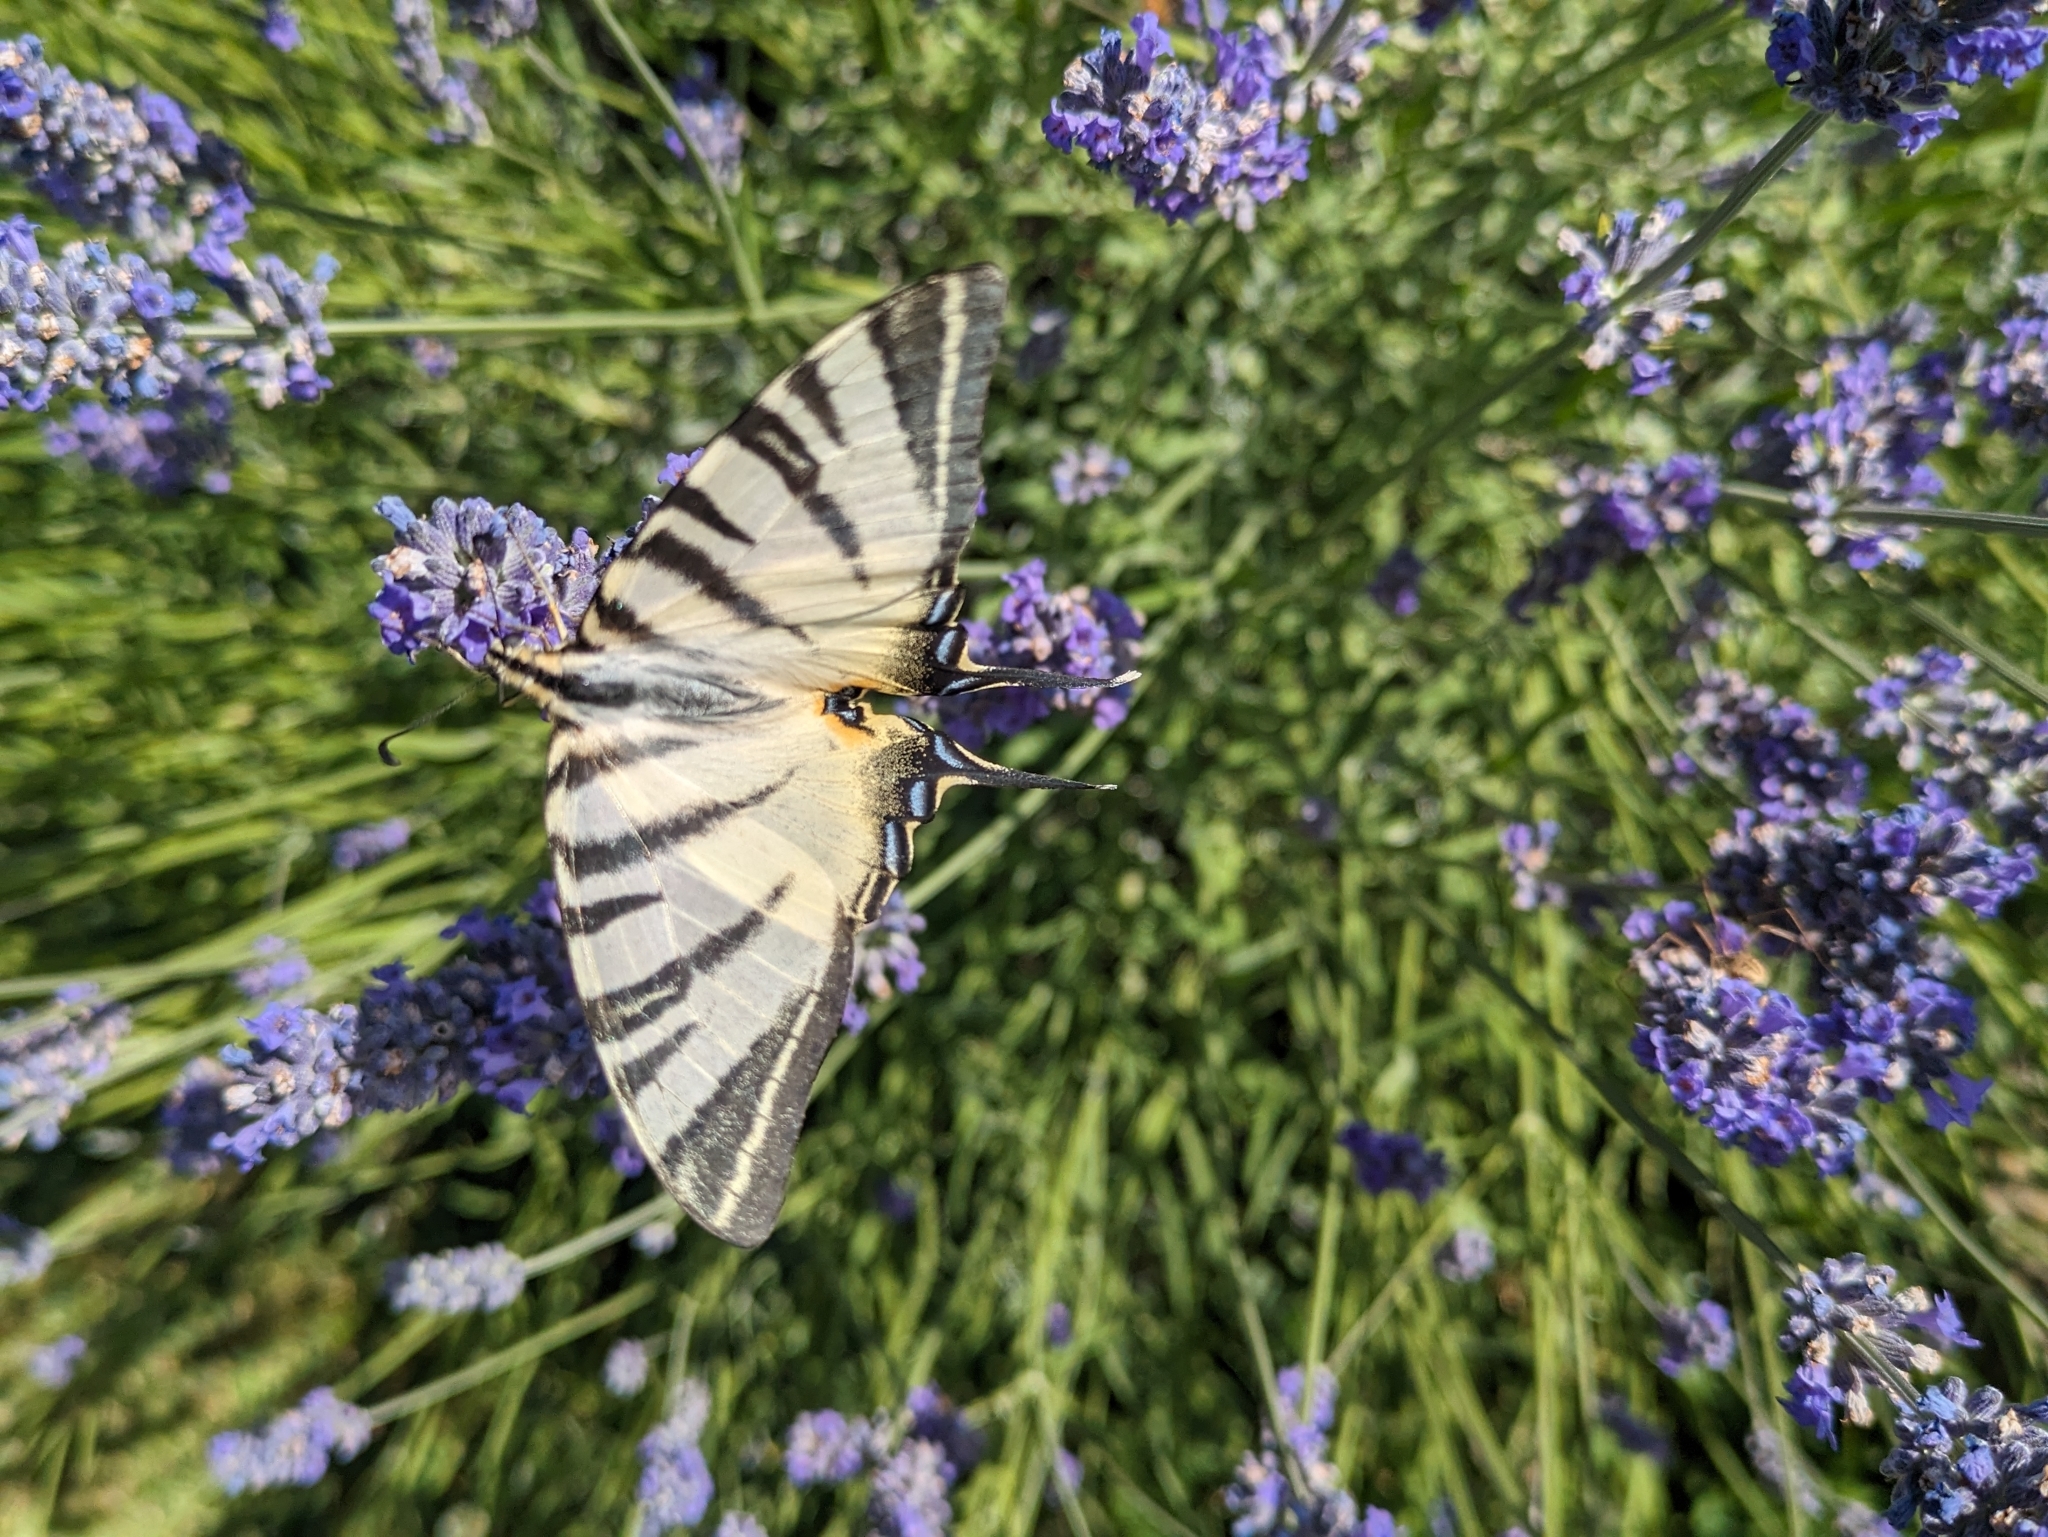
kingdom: Animalia
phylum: Arthropoda
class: Insecta
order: Lepidoptera
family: Papilionidae
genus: Iphiclides
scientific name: Iphiclides podalirius
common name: Scarce swallowtail
